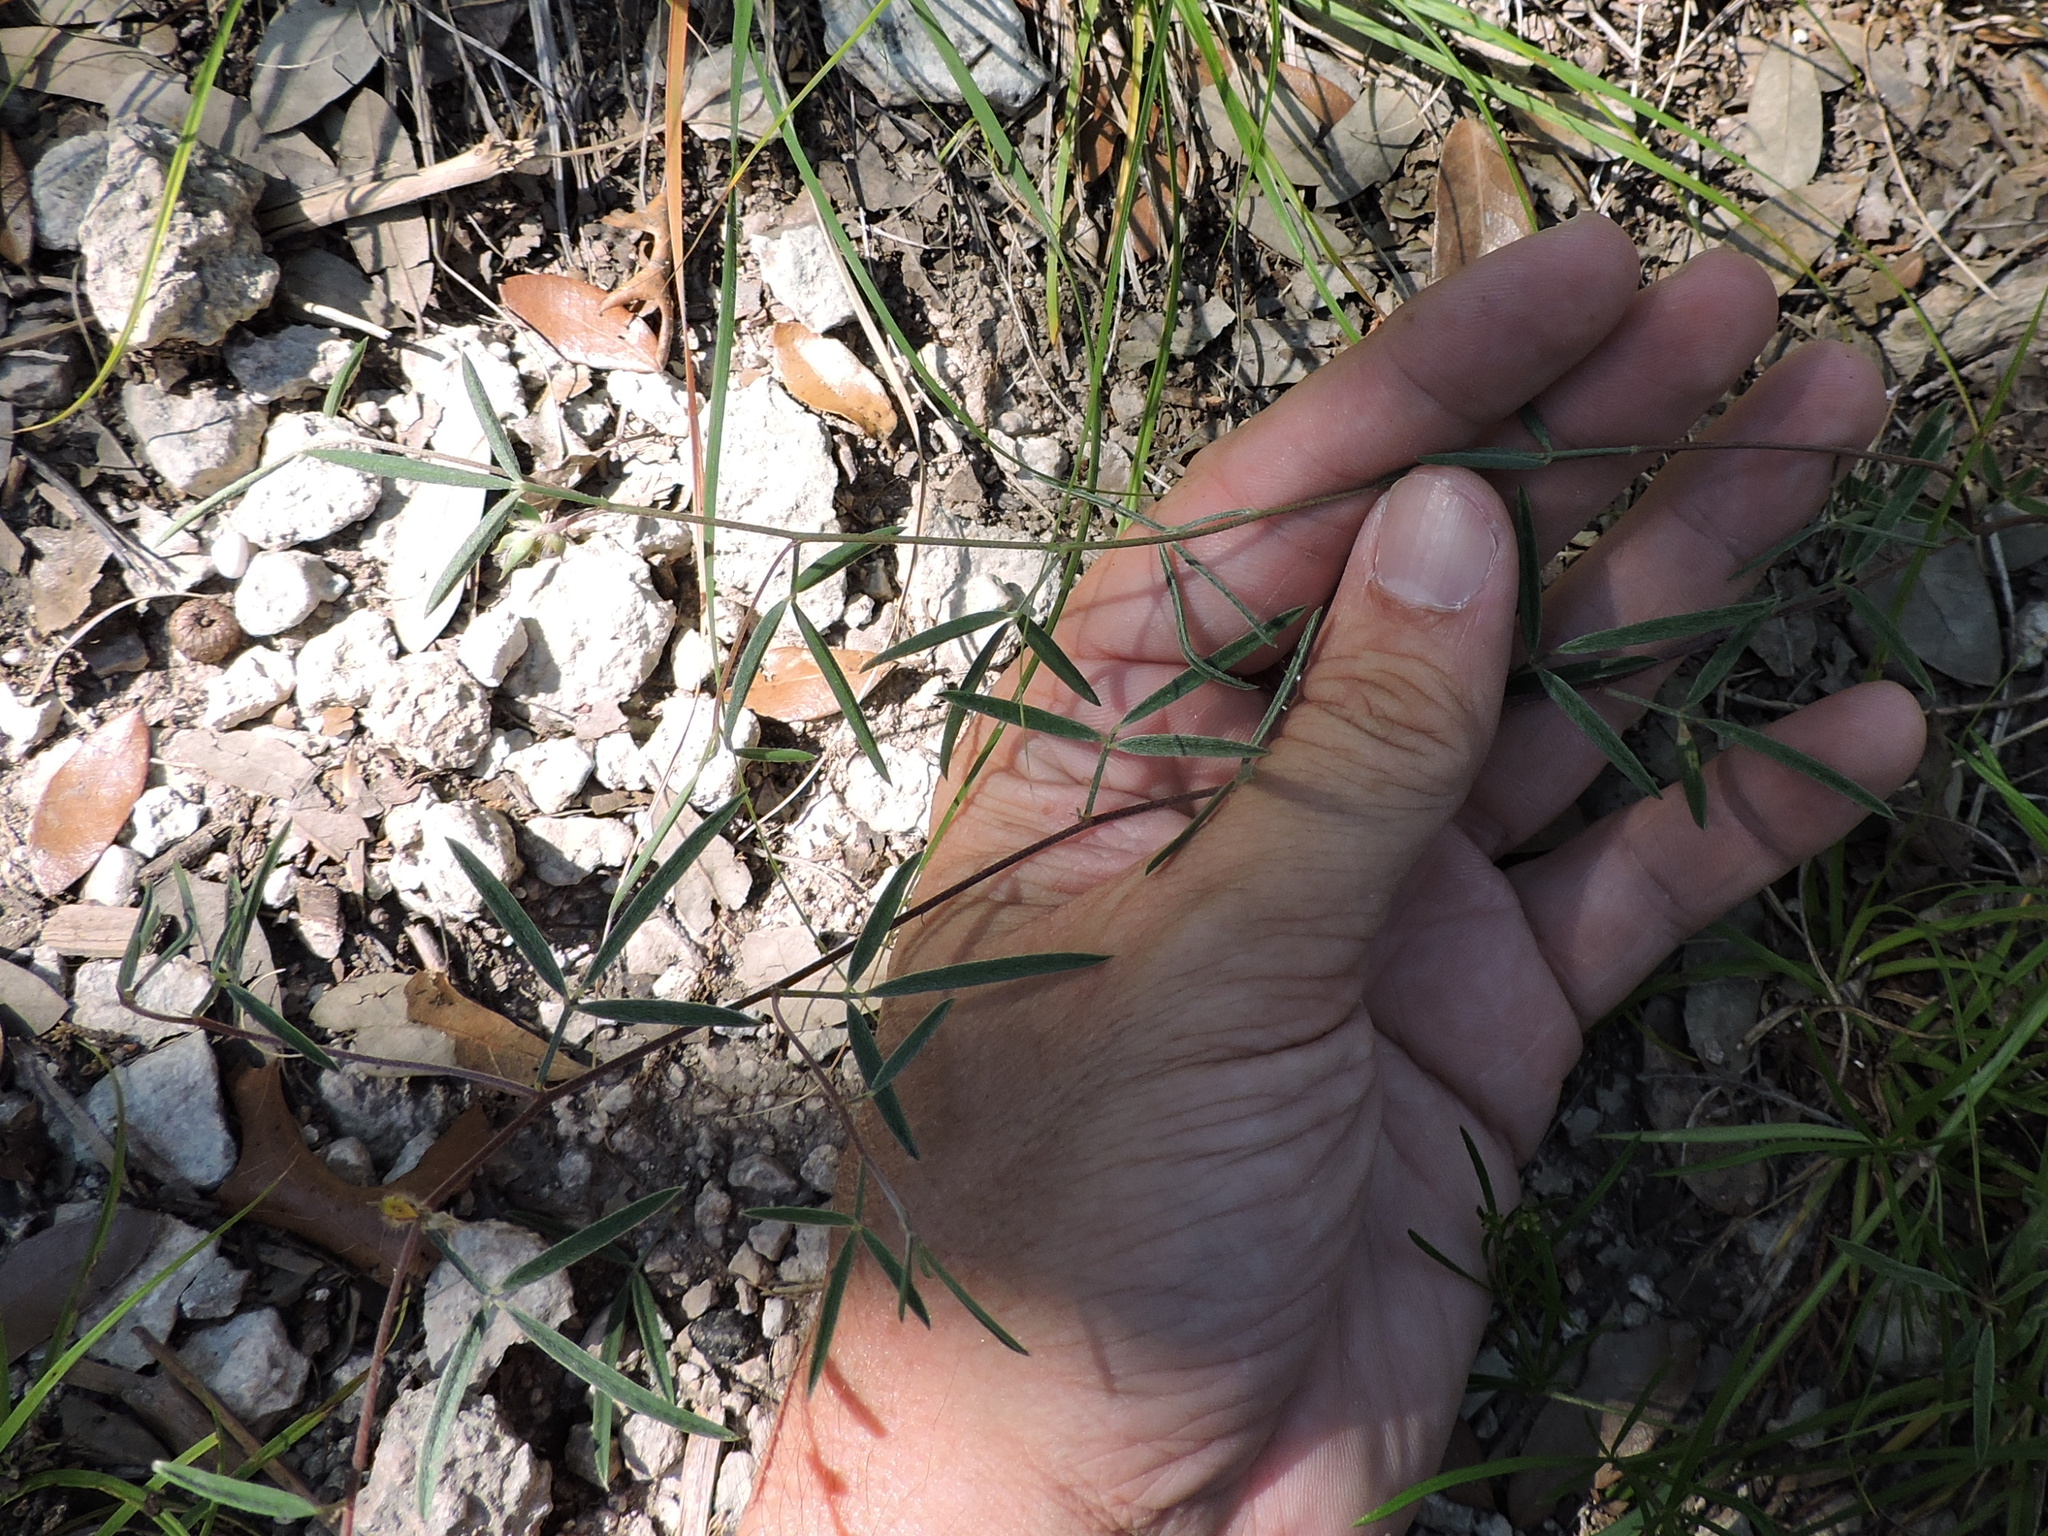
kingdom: Plantae
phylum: Tracheophyta
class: Magnoliopsida
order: Fabales
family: Fabaceae
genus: Dalea
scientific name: Dalea hallii
